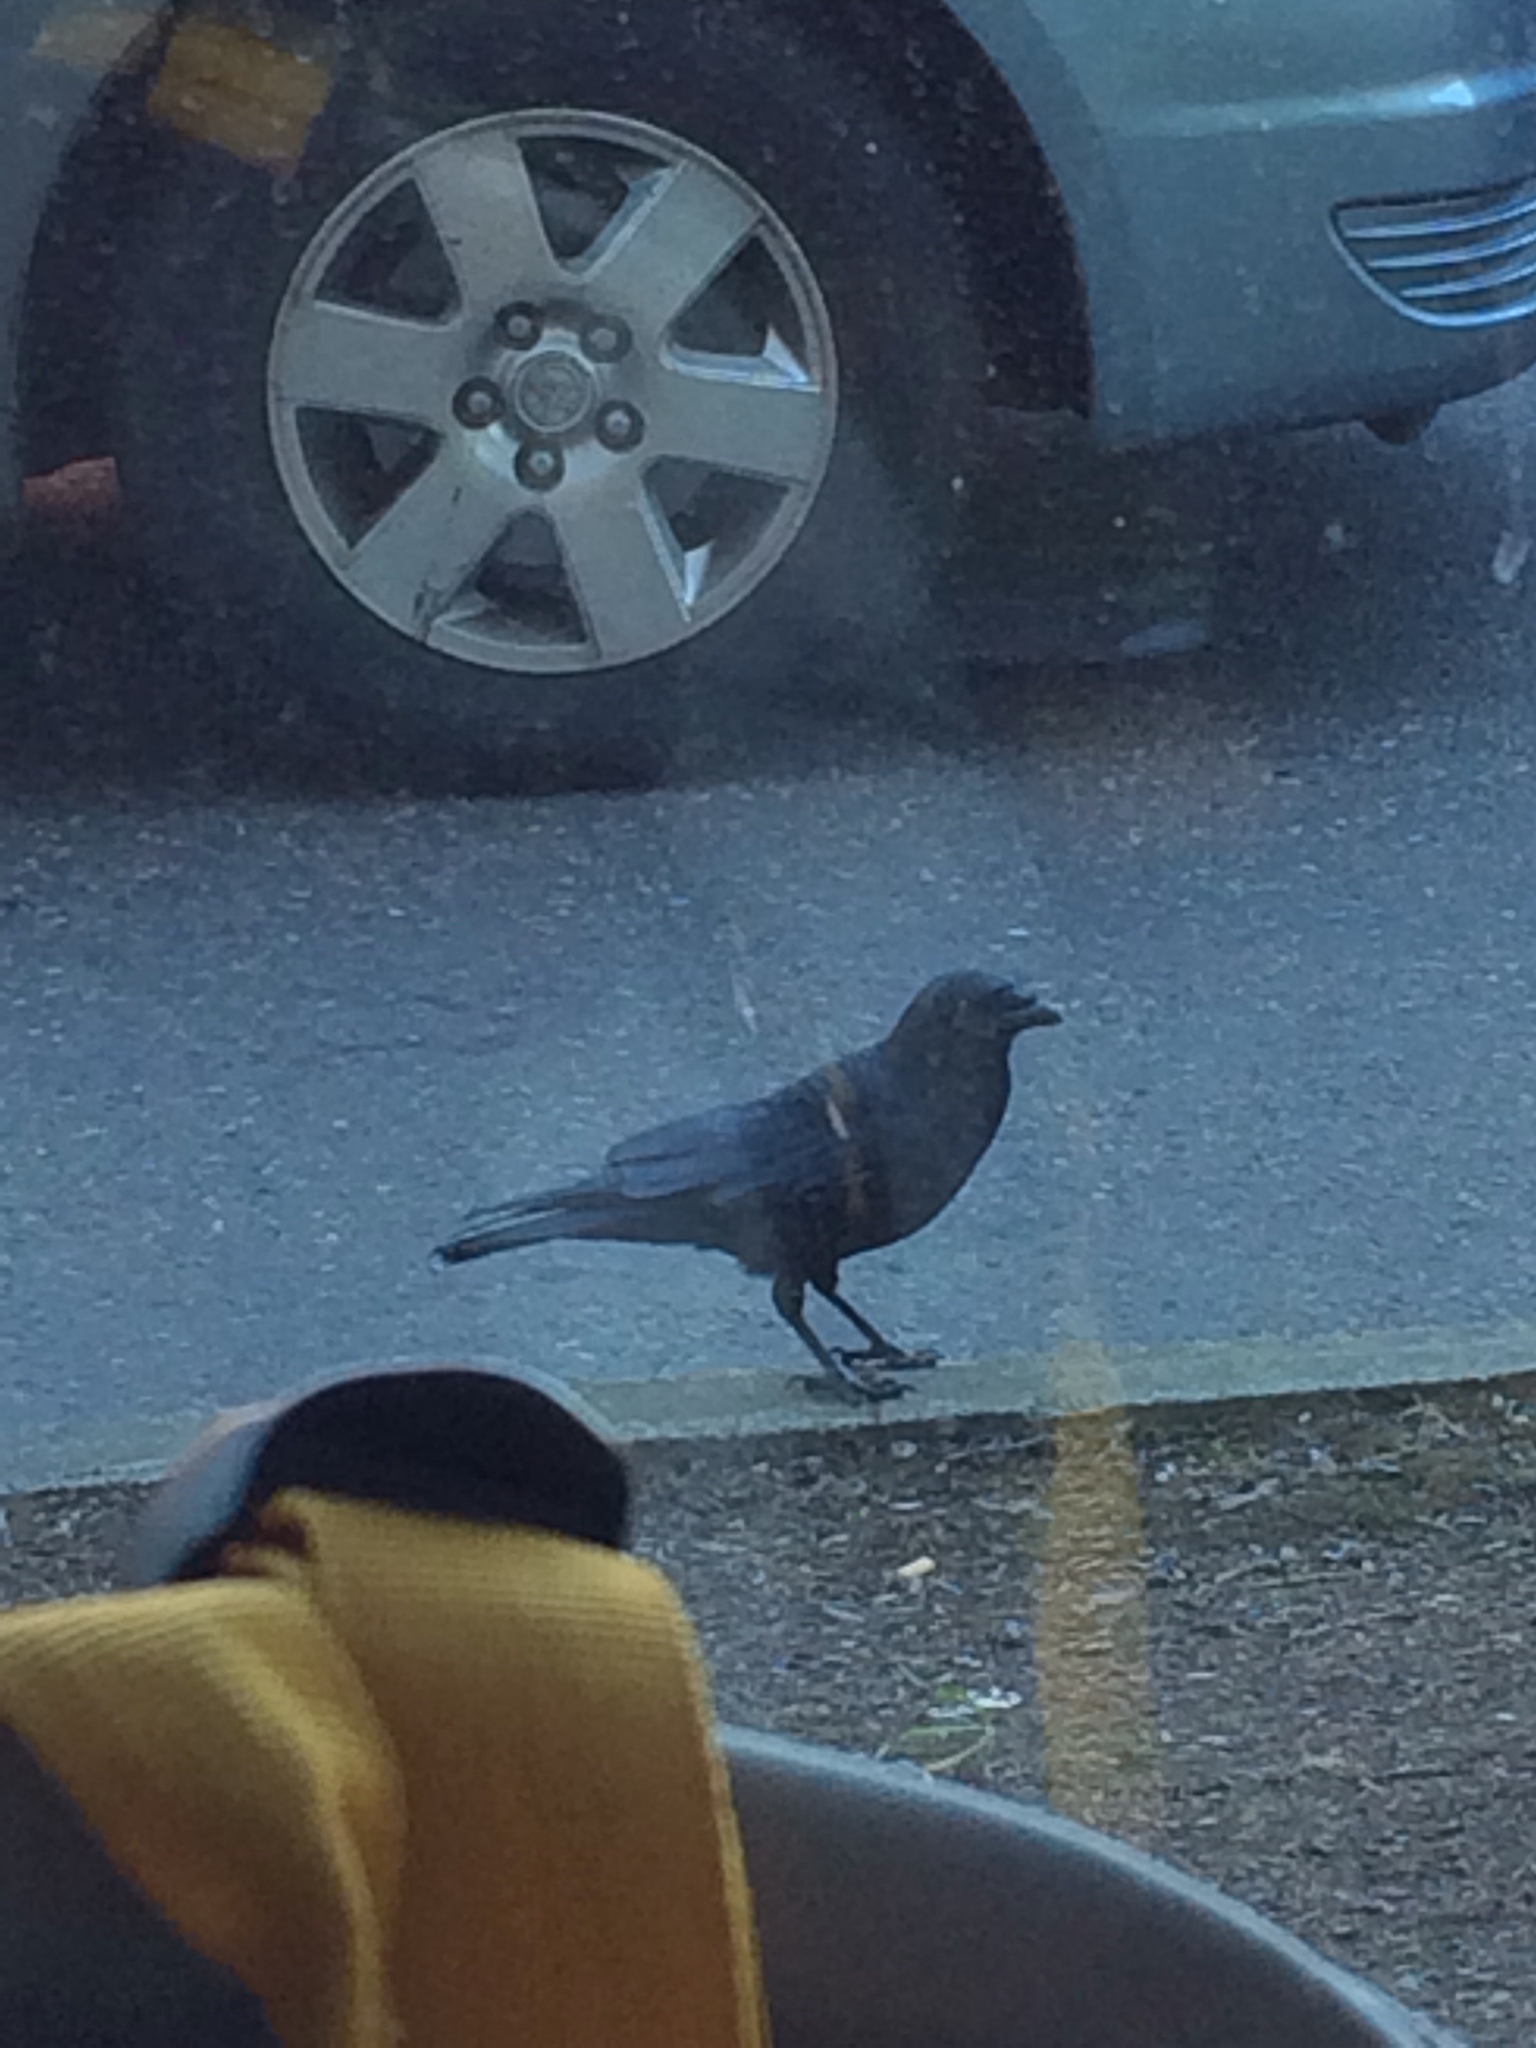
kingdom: Animalia
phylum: Chordata
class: Aves
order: Passeriformes
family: Corvidae
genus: Corvus
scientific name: Corvus brachyrhynchos
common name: American crow
